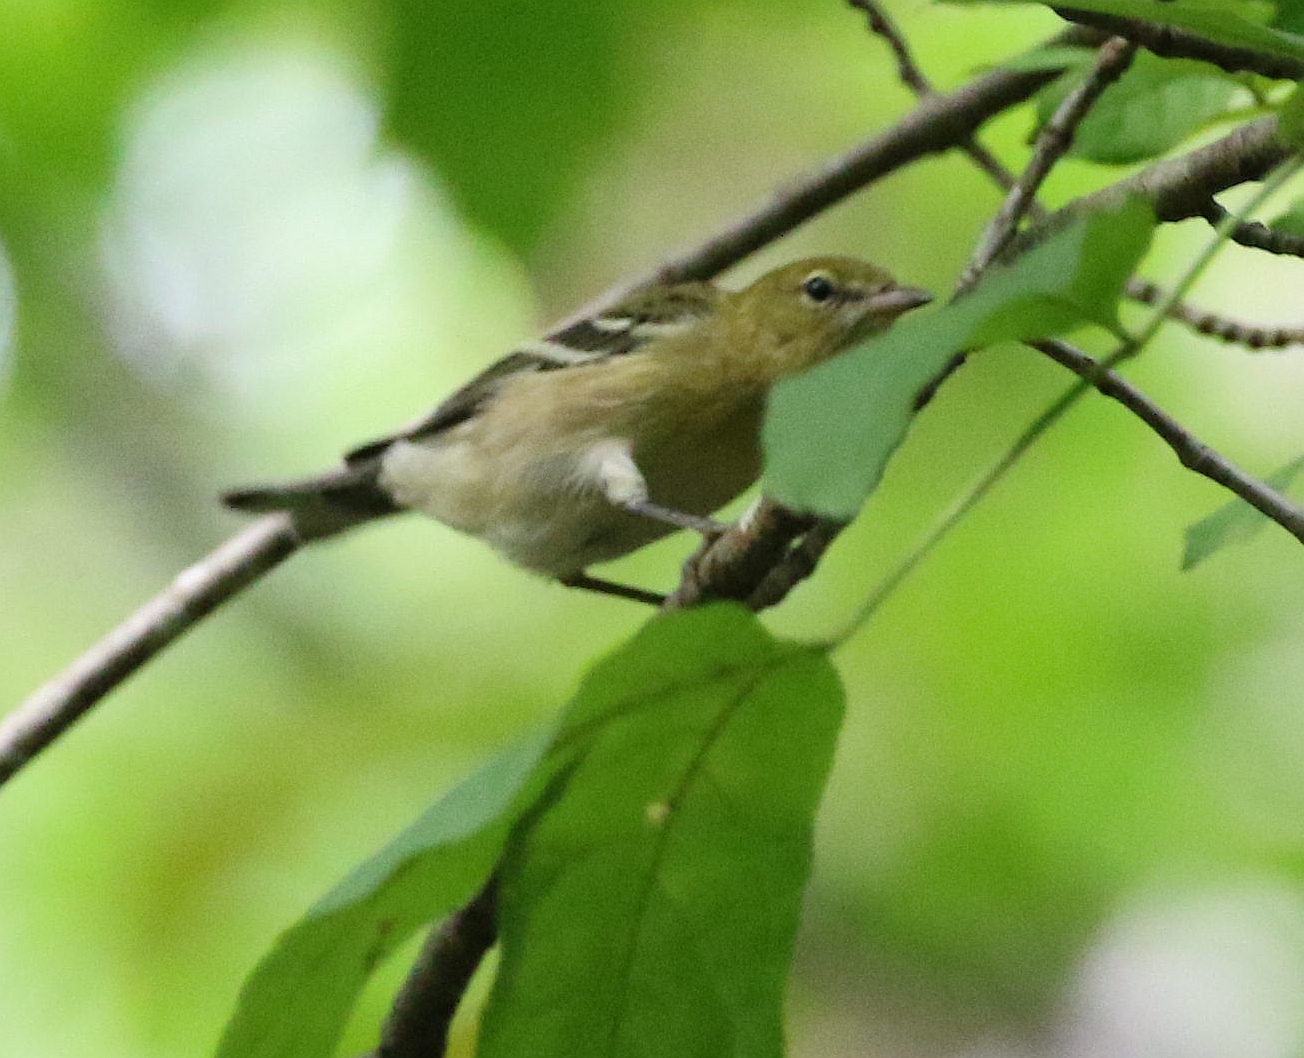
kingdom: Animalia
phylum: Chordata
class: Aves
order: Passeriformes
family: Parulidae
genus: Setophaga
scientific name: Setophaga castanea
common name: Bay-breasted warbler
